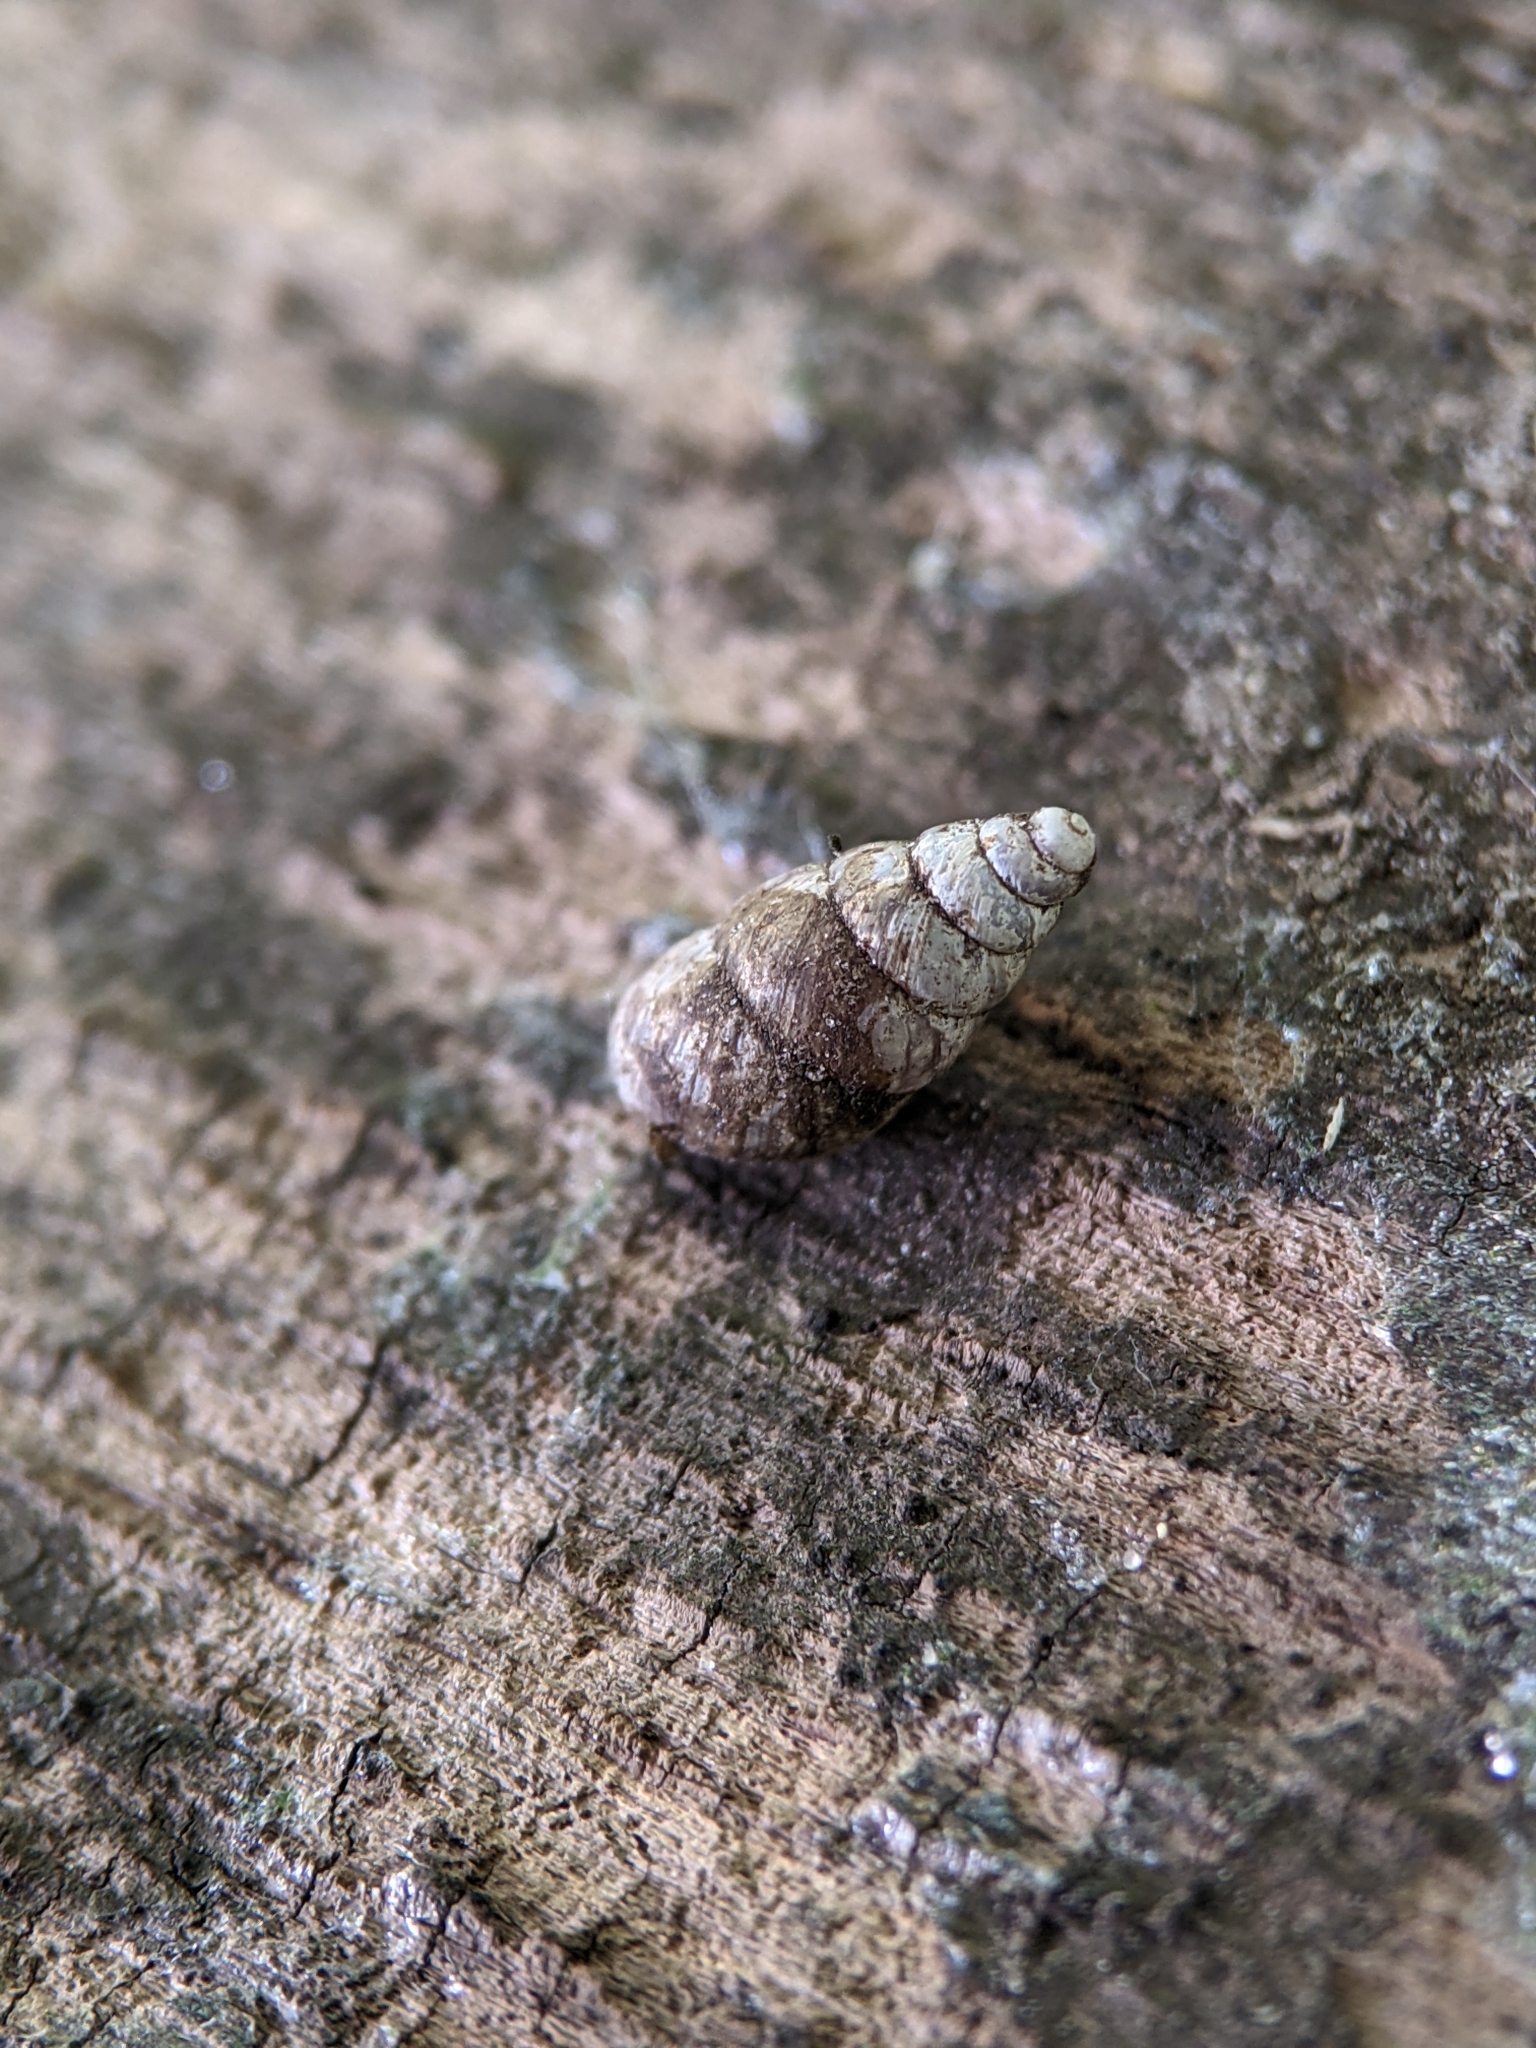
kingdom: Animalia
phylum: Mollusca
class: Gastropoda
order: Stylommatophora
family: Enidae
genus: Merdigera
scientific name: Merdigera obscura
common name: Lesser bulin
